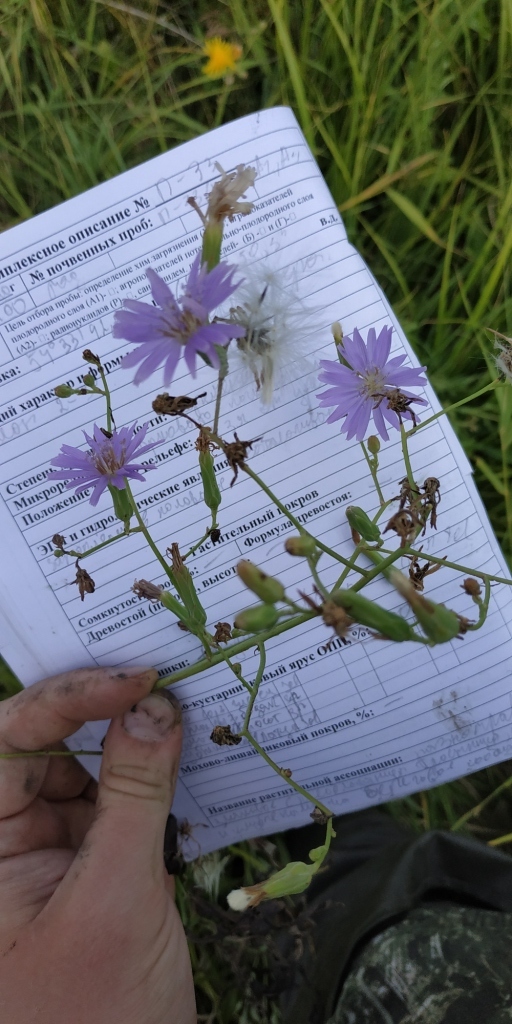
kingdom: Plantae
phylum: Tracheophyta
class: Magnoliopsida
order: Asterales
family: Asteraceae
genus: Lactuca
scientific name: Lactuca tatarica
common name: Blue lettuce
